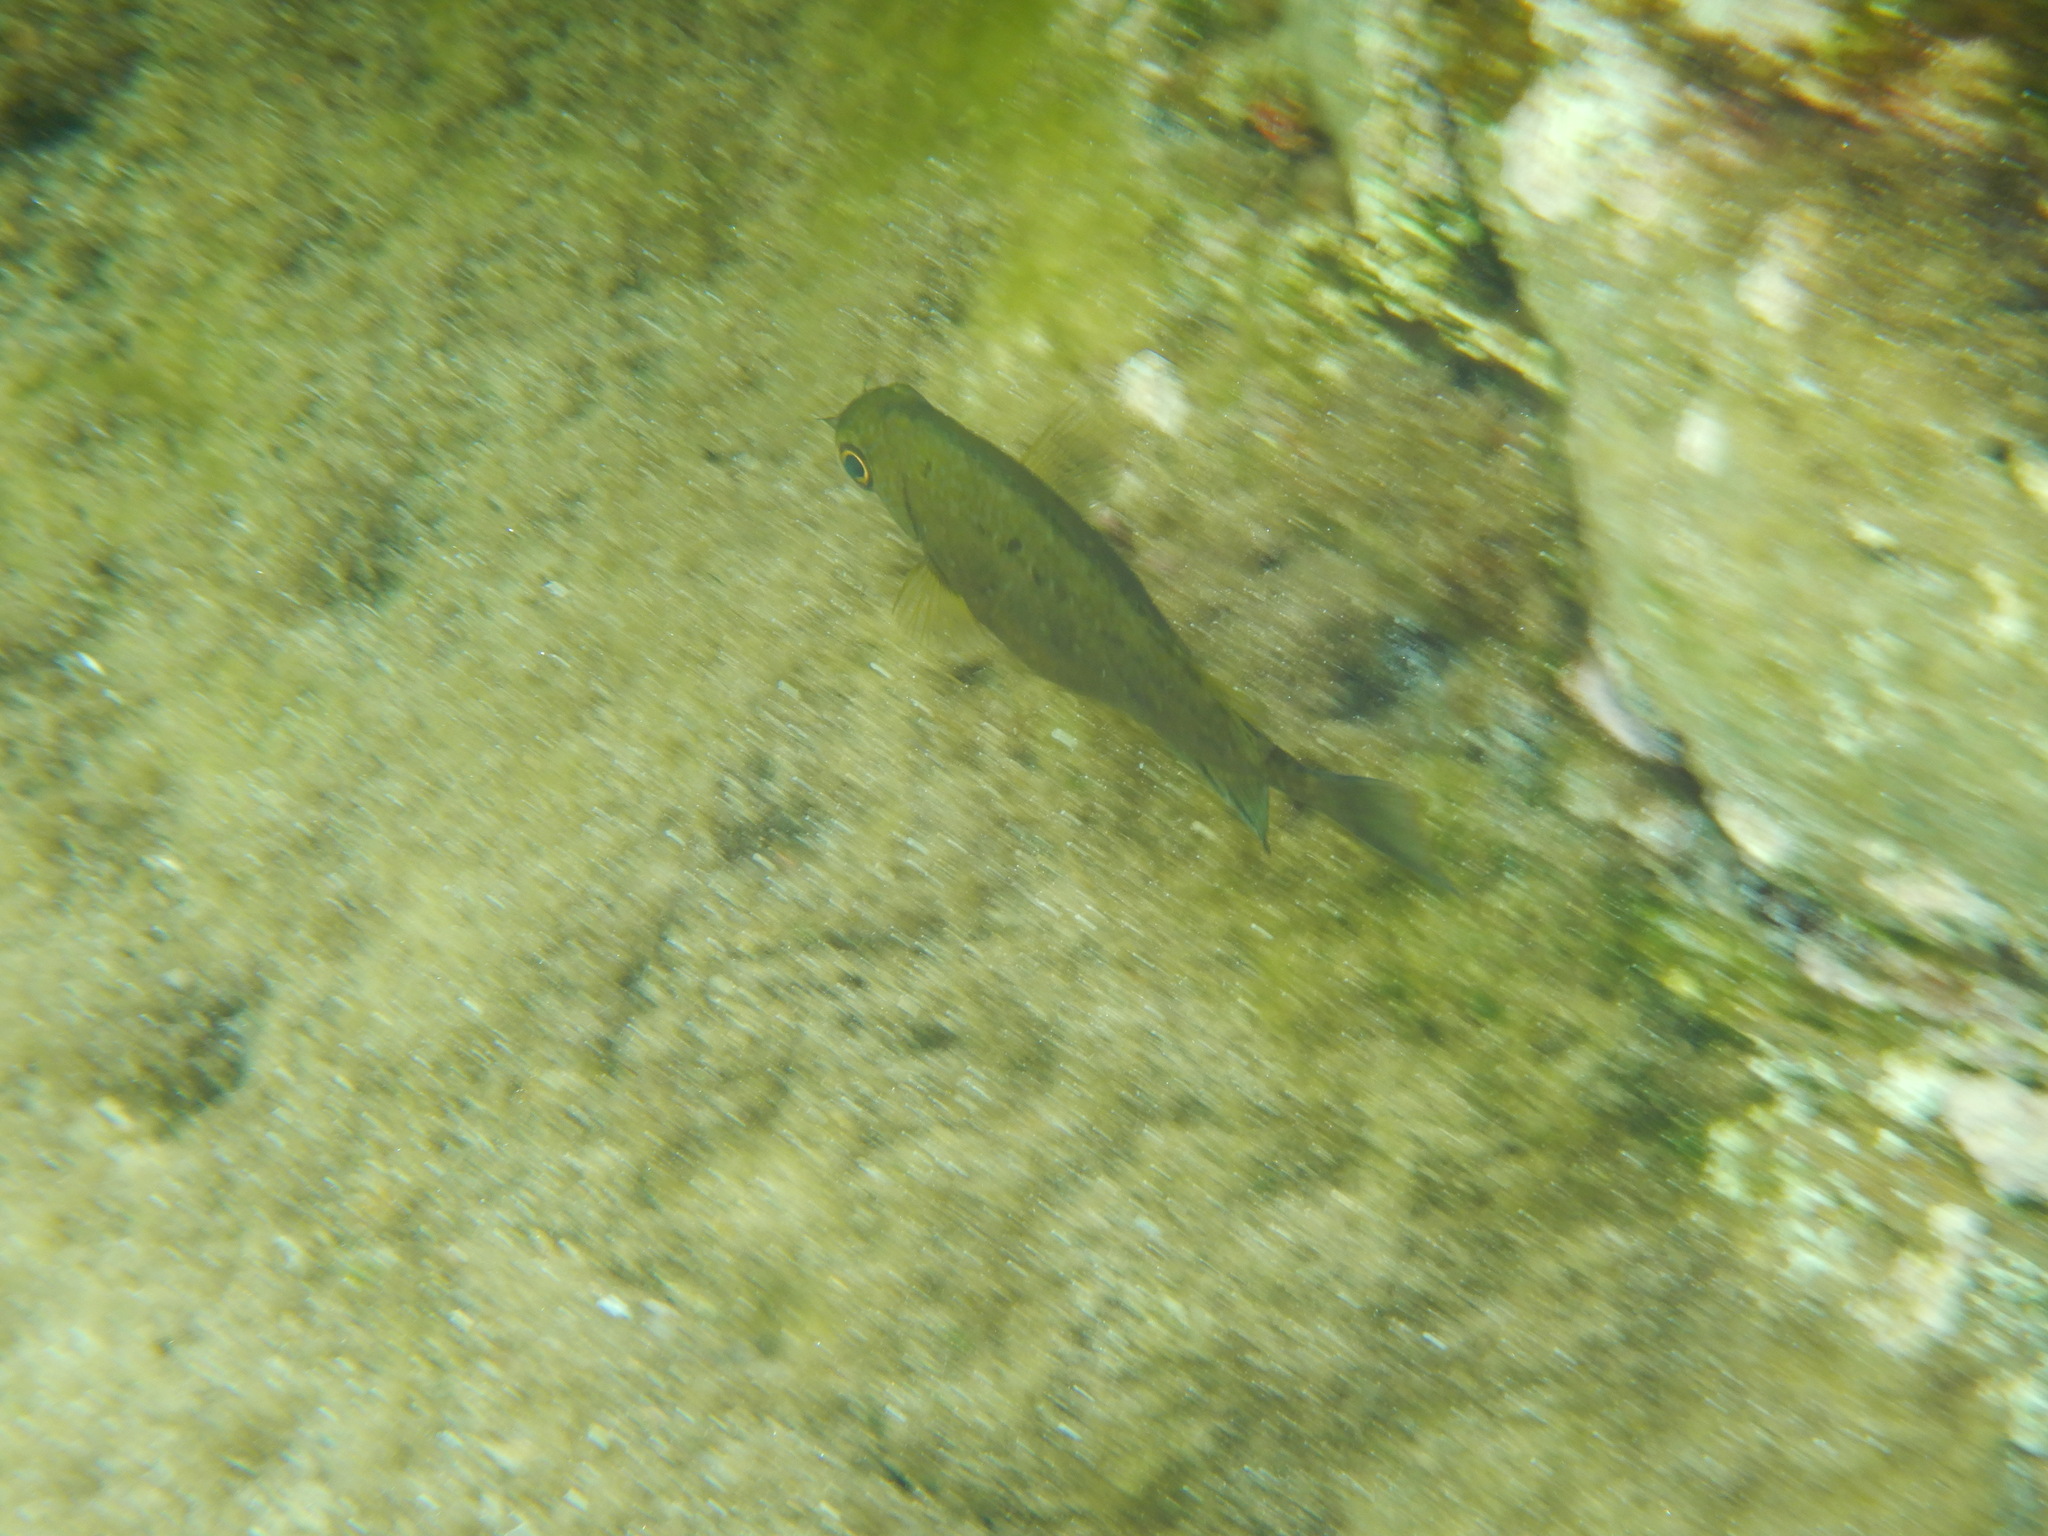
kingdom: Animalia
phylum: Chordata
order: Perciformes
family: Siganidae
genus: Siganus
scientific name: Siganus luridus
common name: Dusky spinefoot
